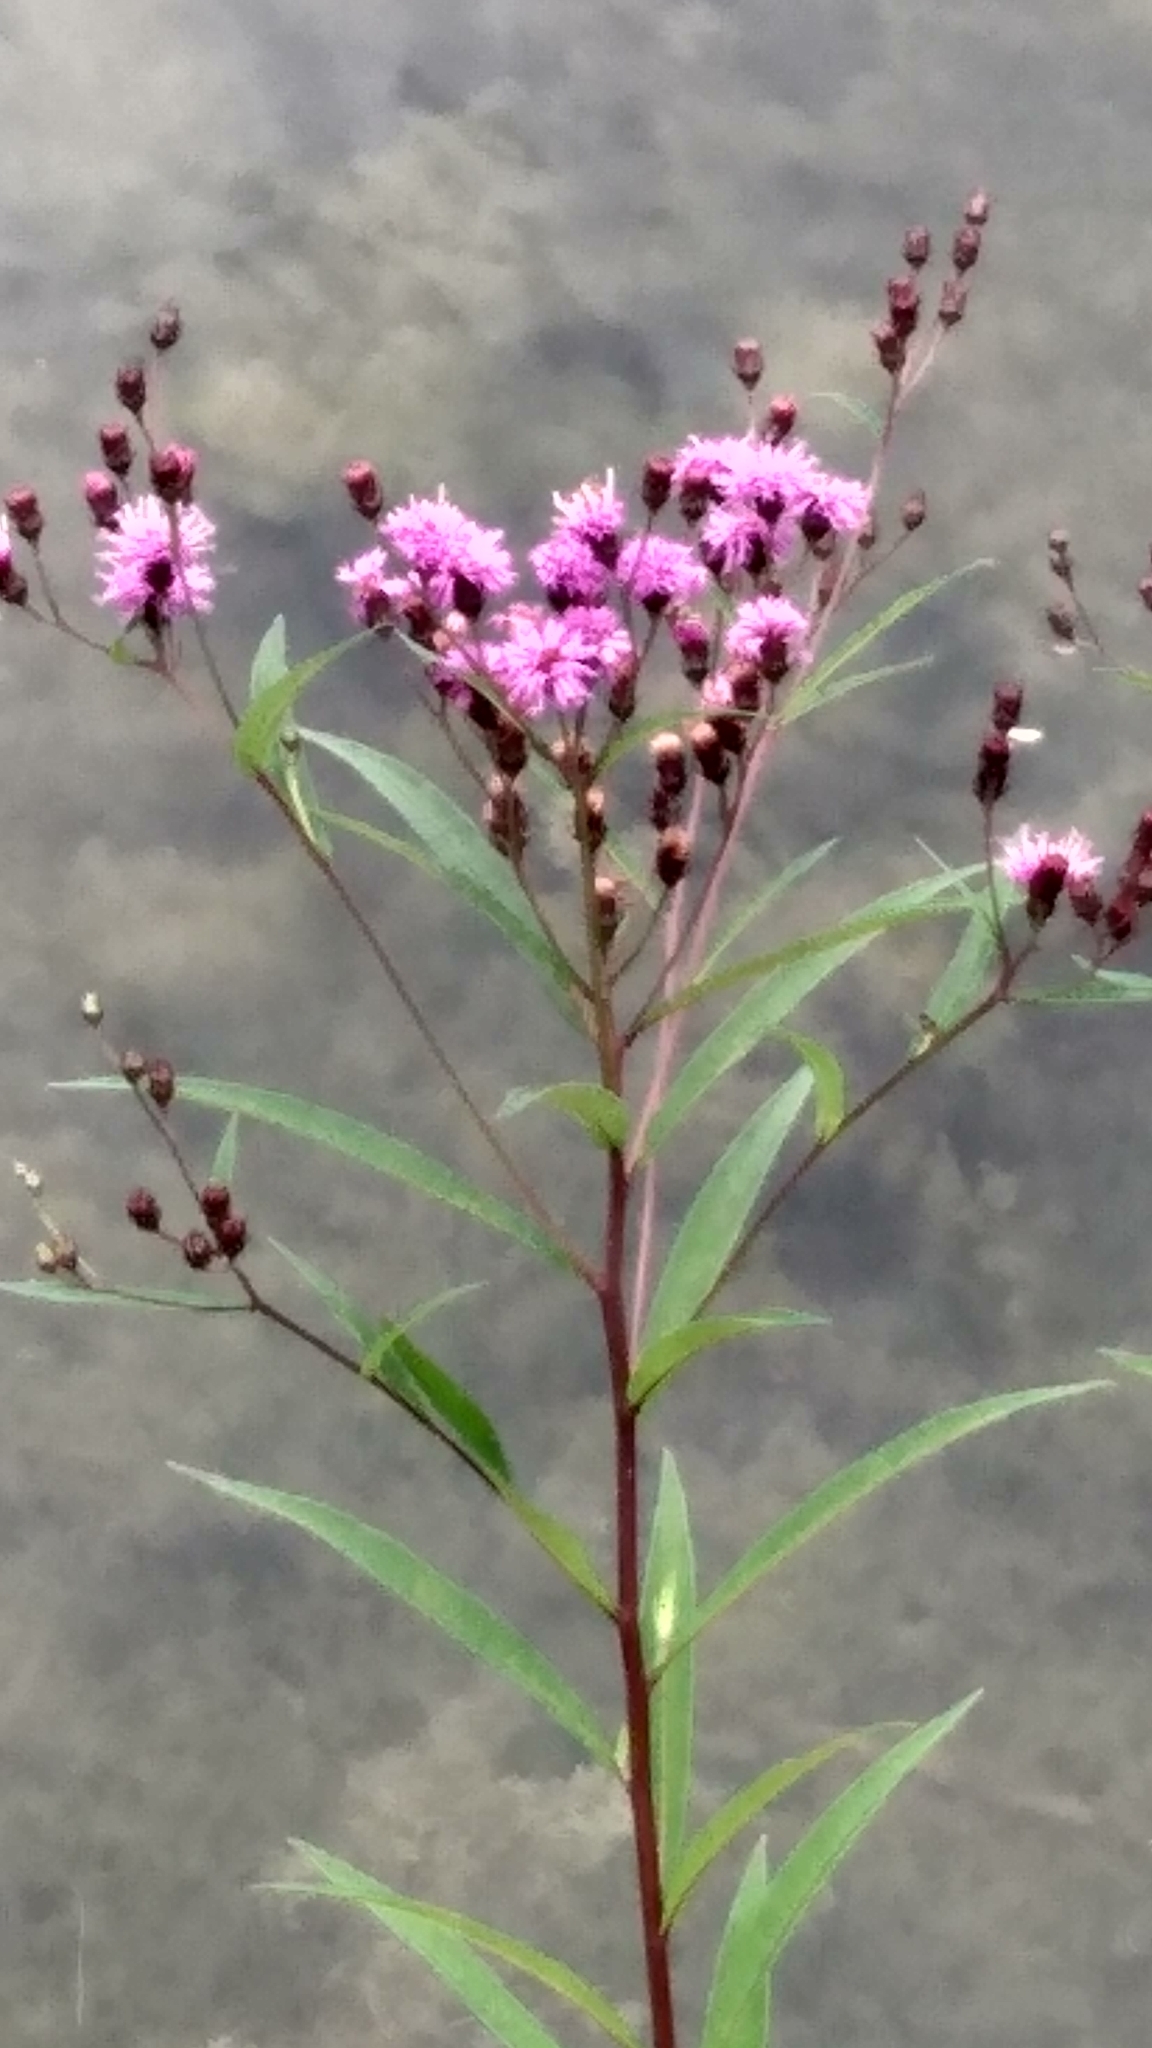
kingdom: Plantae
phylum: Tracheophyta
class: Magnoliopsida
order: Asterales
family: Asteraceae
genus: Vernonia
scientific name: Vernonia noveboracensis
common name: New york ironweed
